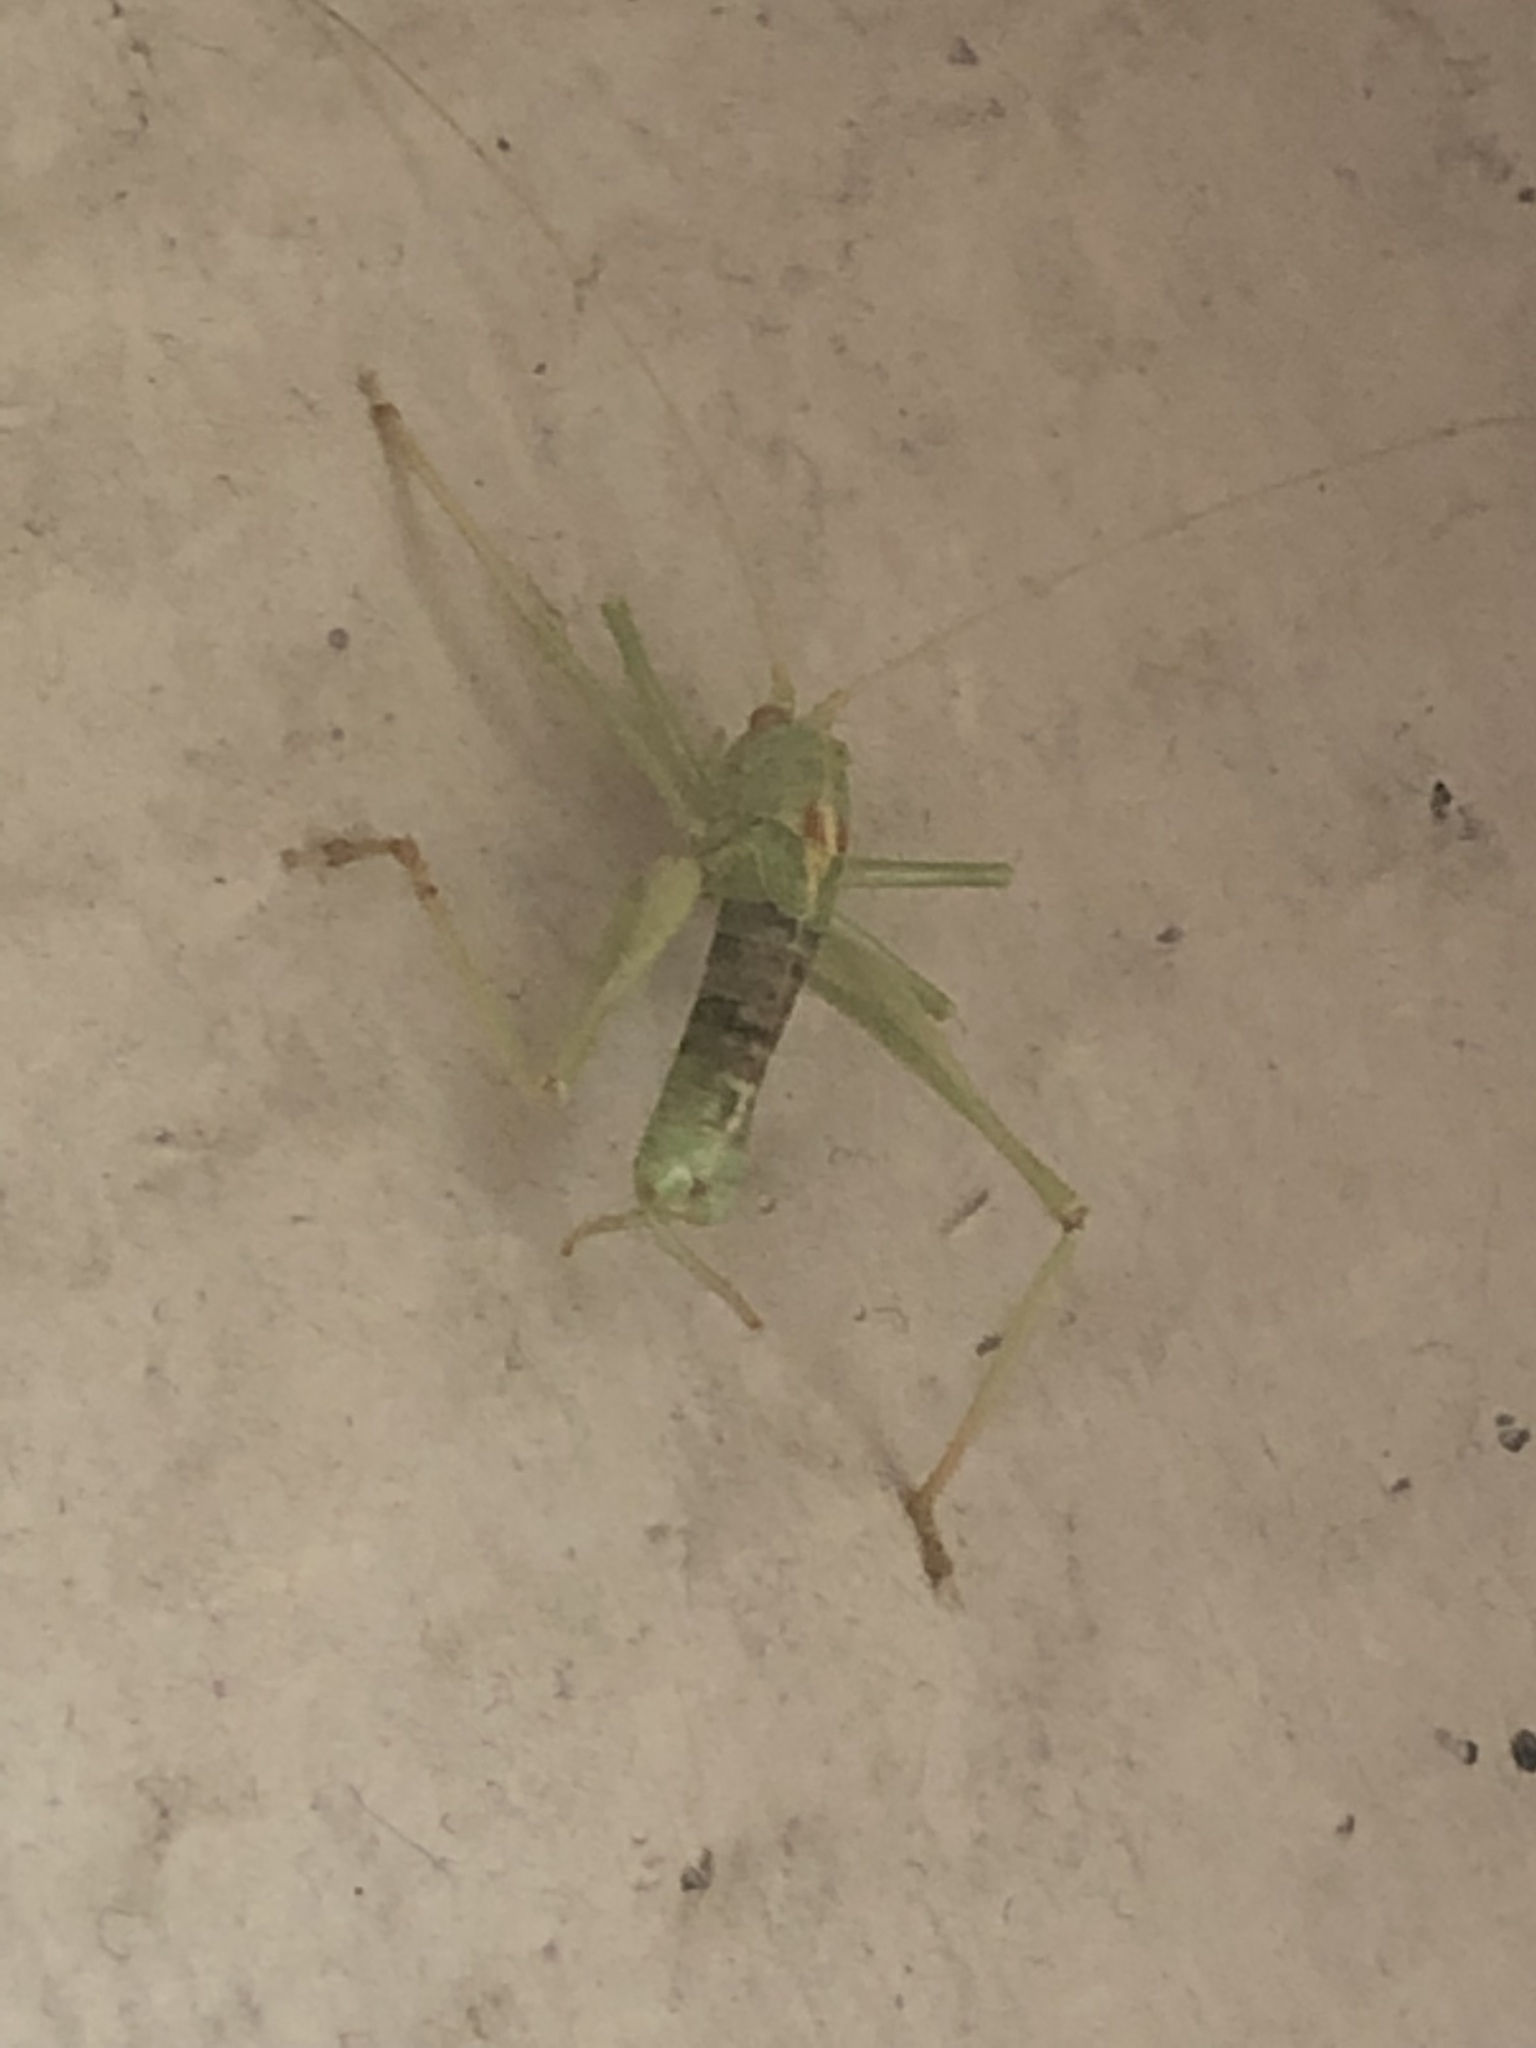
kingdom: Animalia
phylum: Arthropoda
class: Insecta
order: Orthoptera
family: Tettigoniidae
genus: Meconema
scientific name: Meconema meridionale
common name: Southern oak bush-cricket
